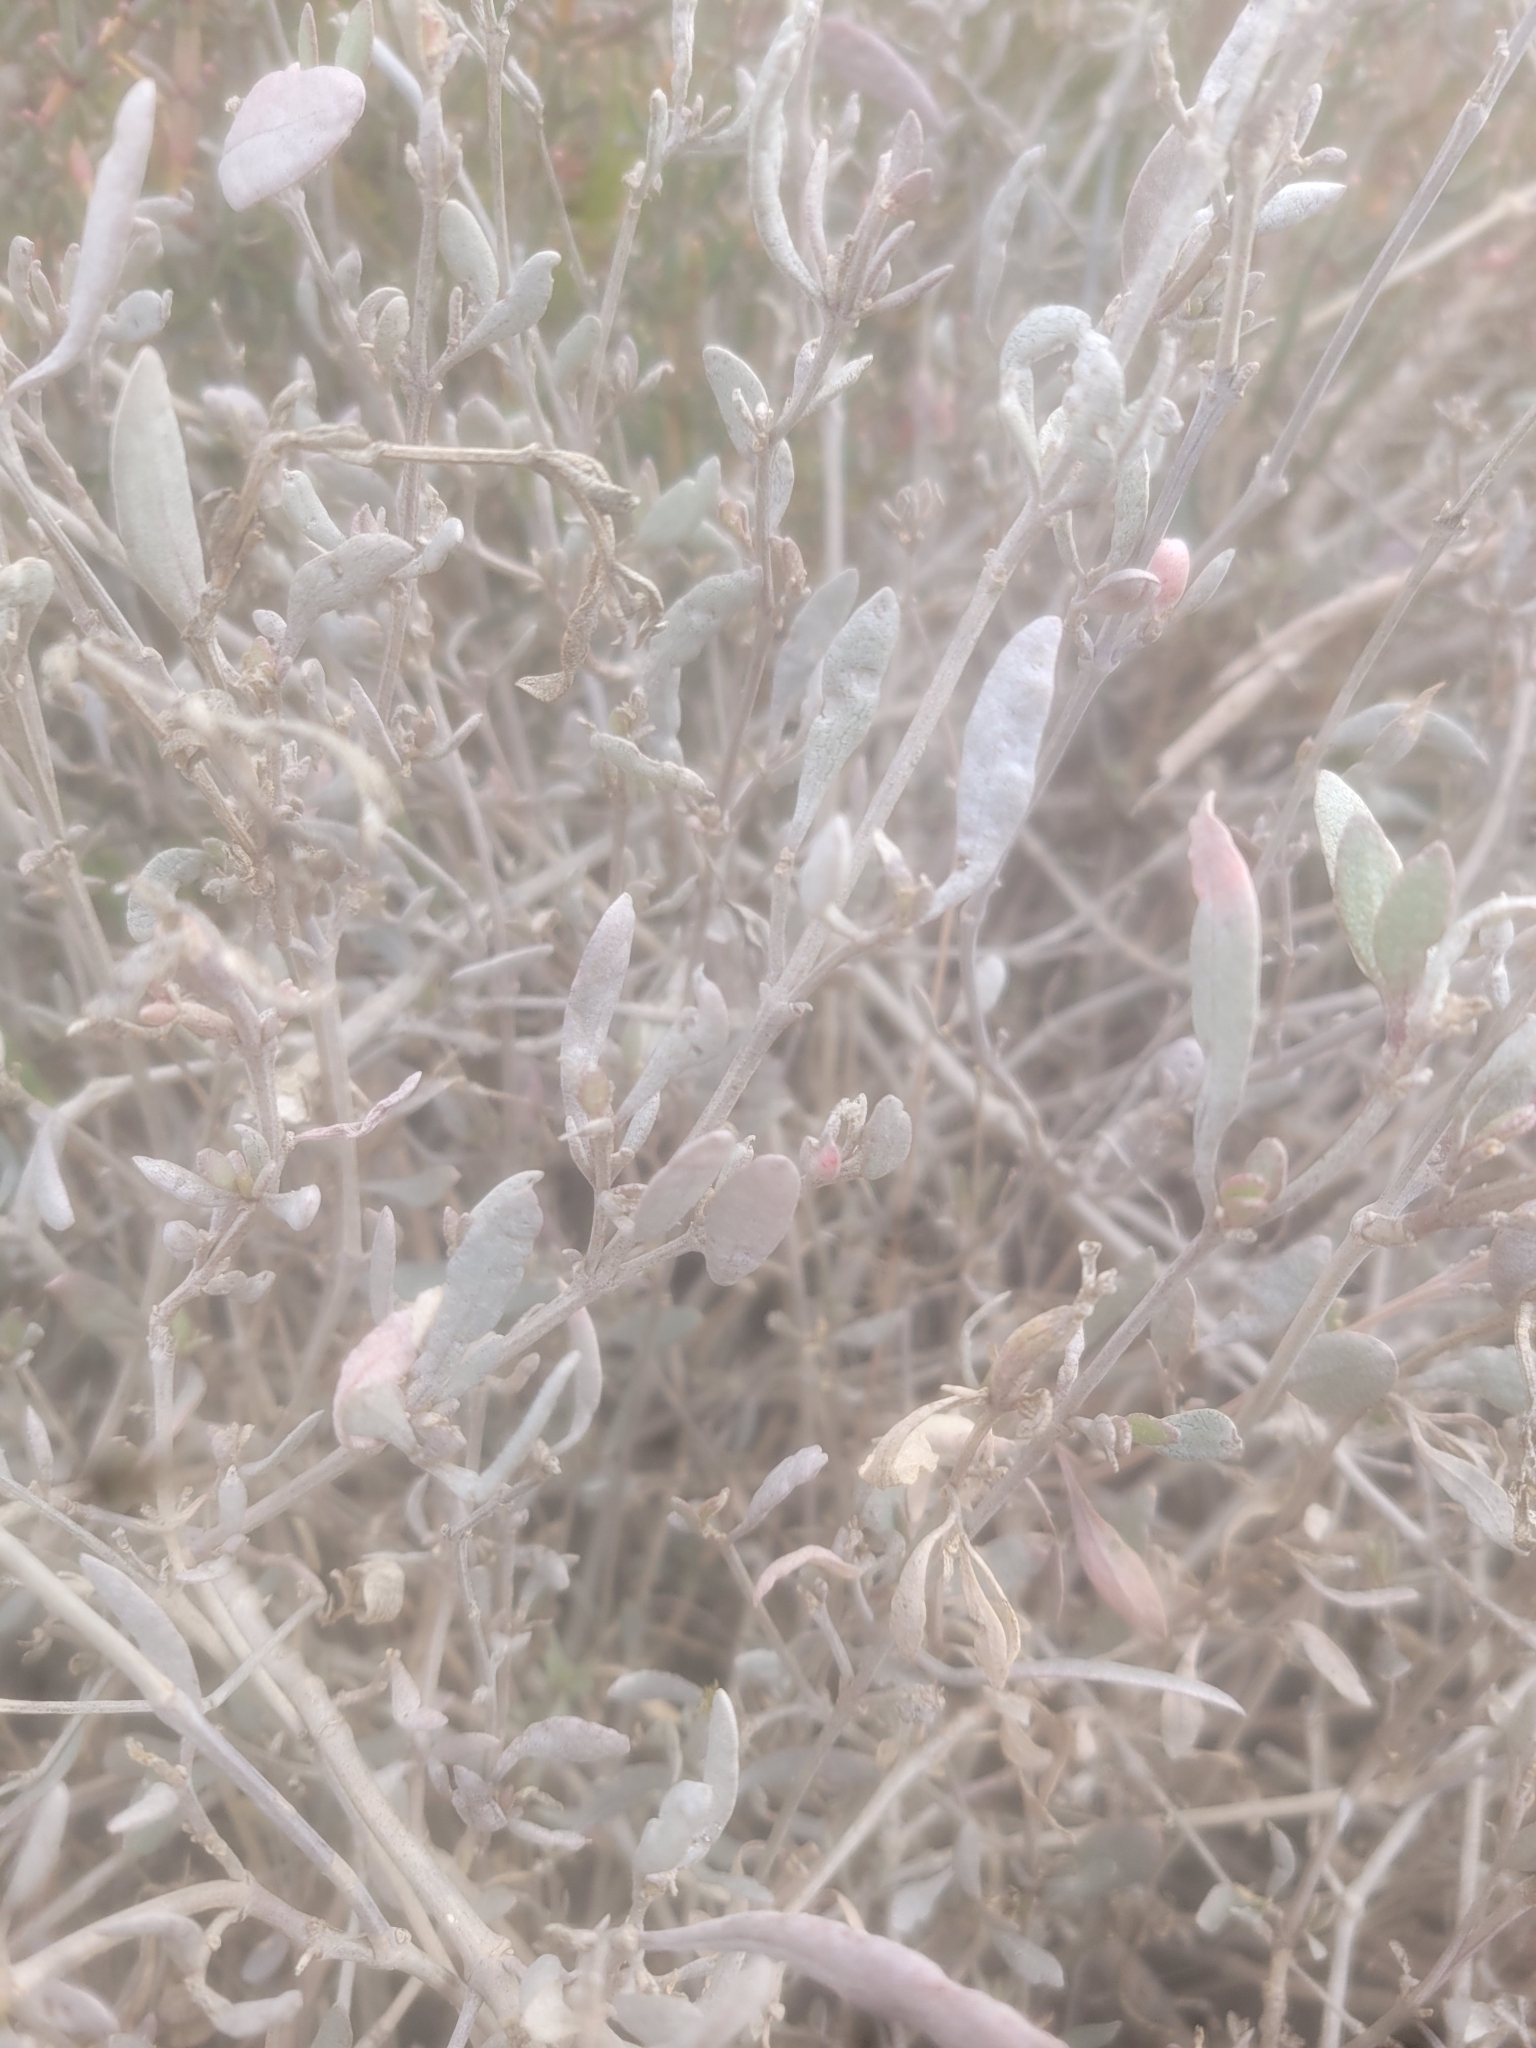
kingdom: Plantae
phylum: Tracheophyta
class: Magnoliopsida
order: Caryophyllales
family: Amaranthaceae
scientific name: Amaranthaceae
